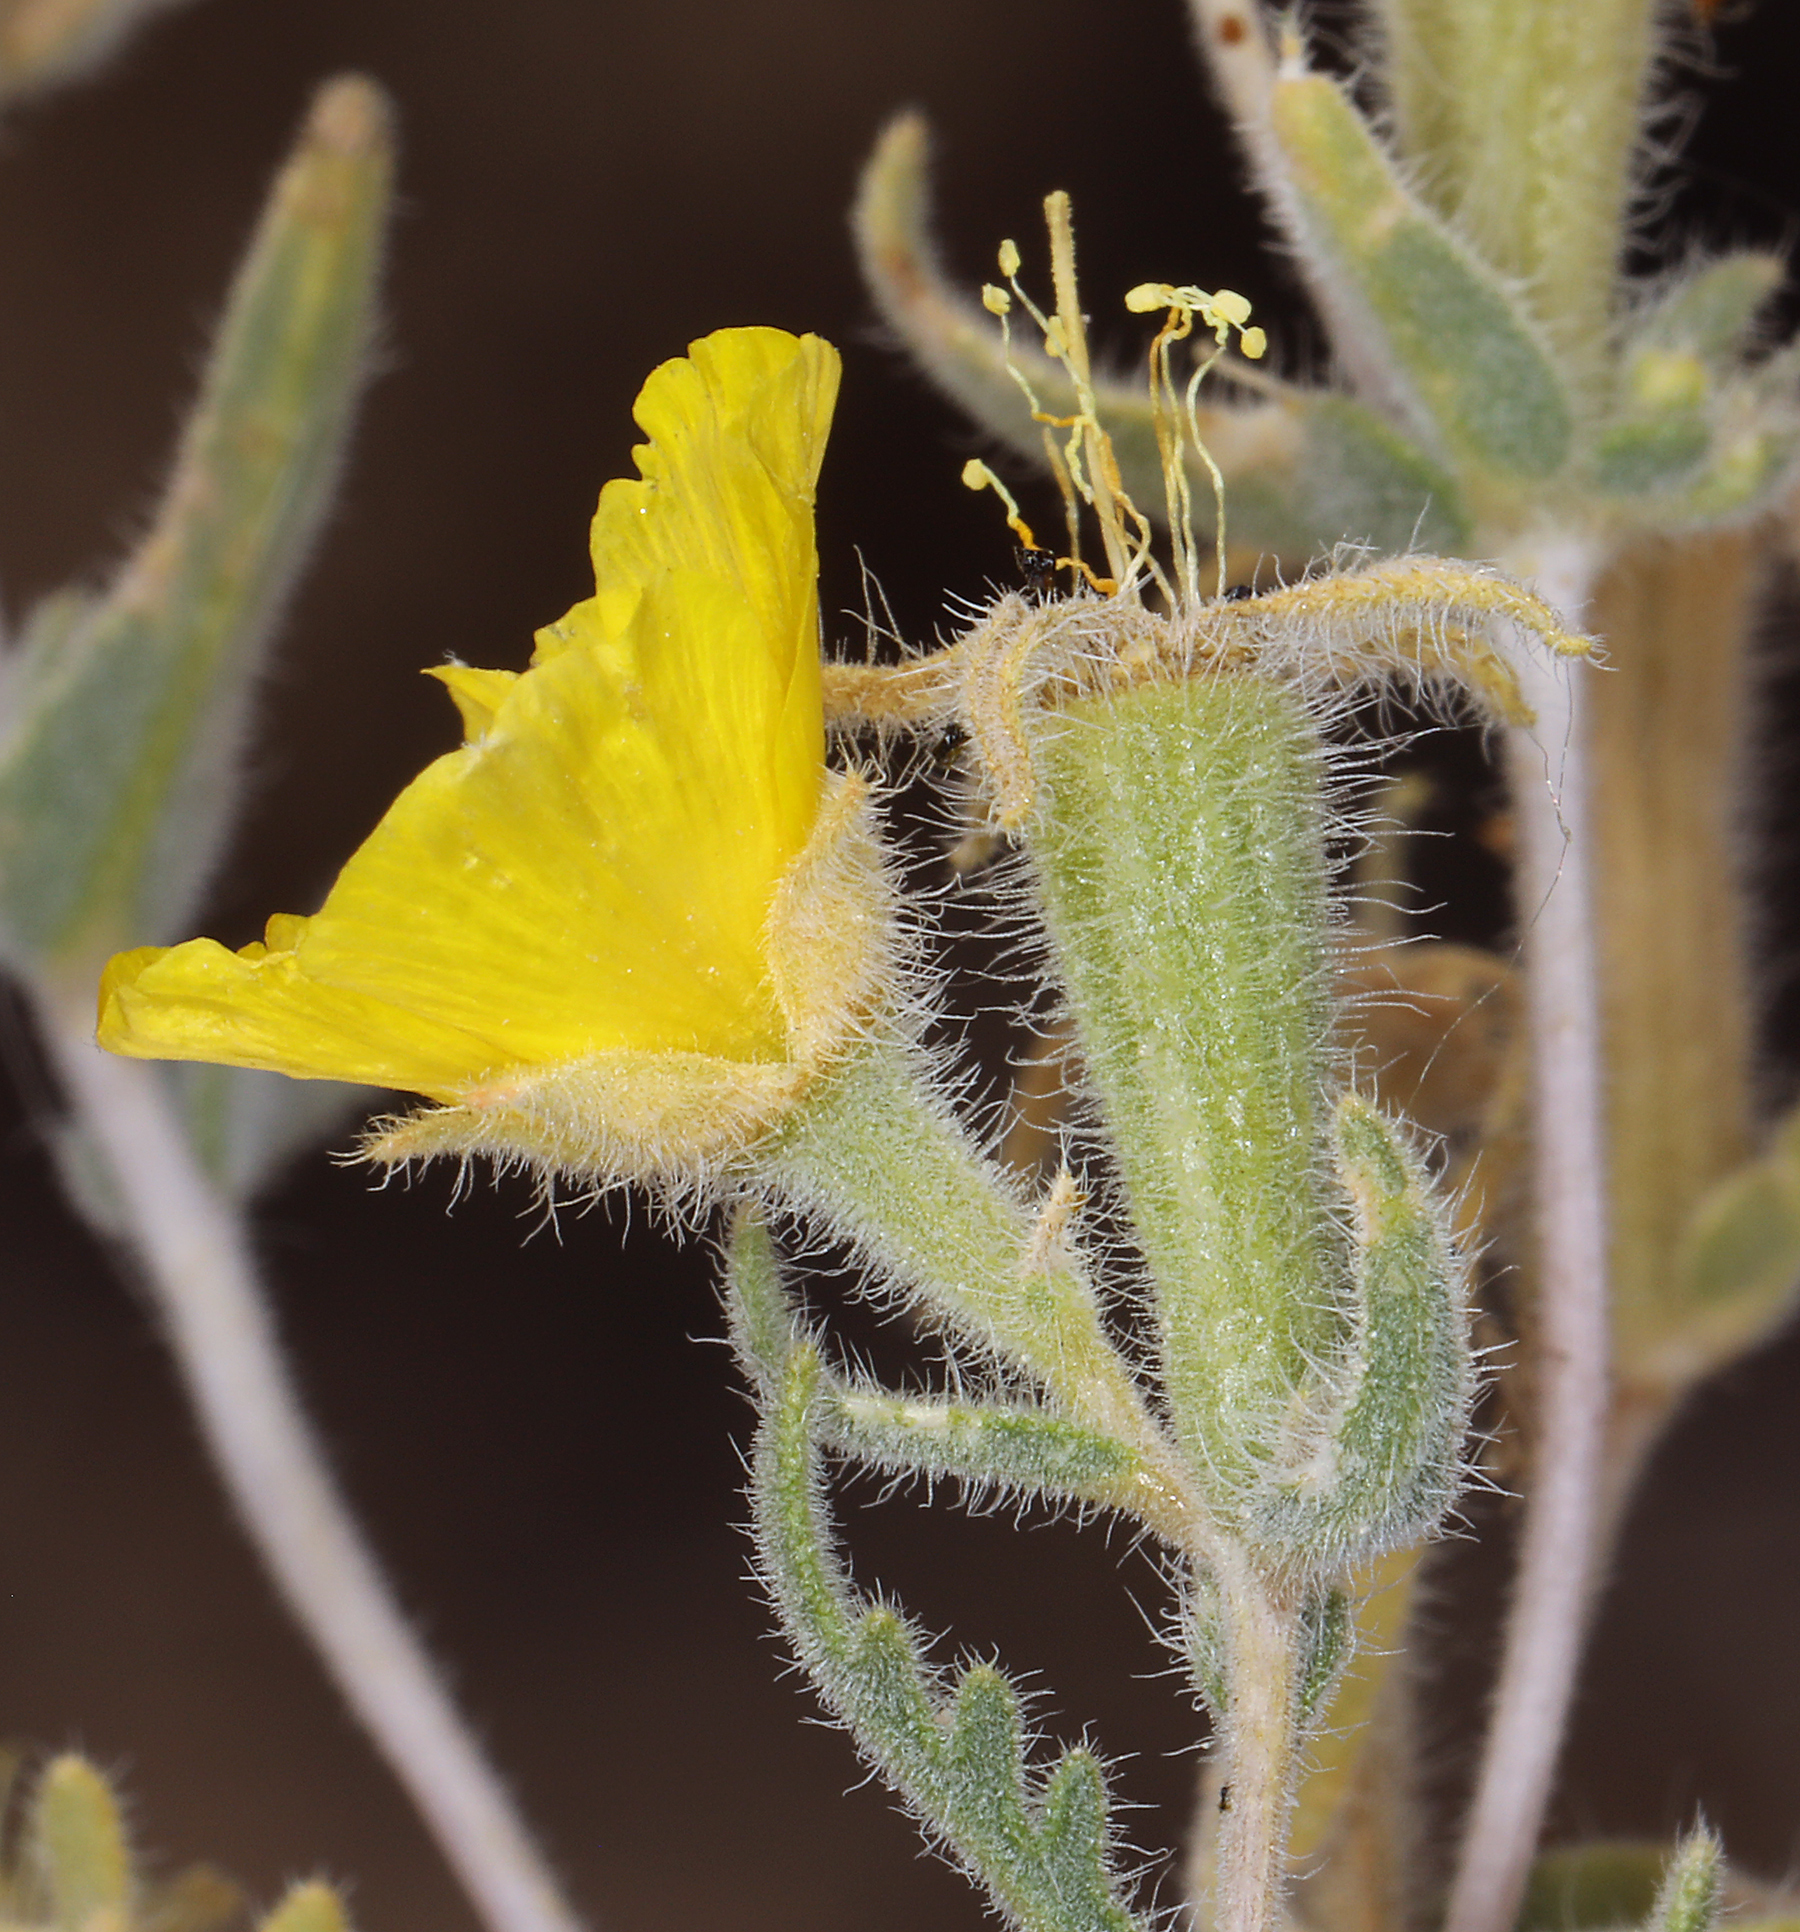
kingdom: Plantae
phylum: Tracheophyta
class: Magnoliopsida
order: Cornales
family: Loasaceae
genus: Mentzelia
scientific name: Mentzelia nitens
